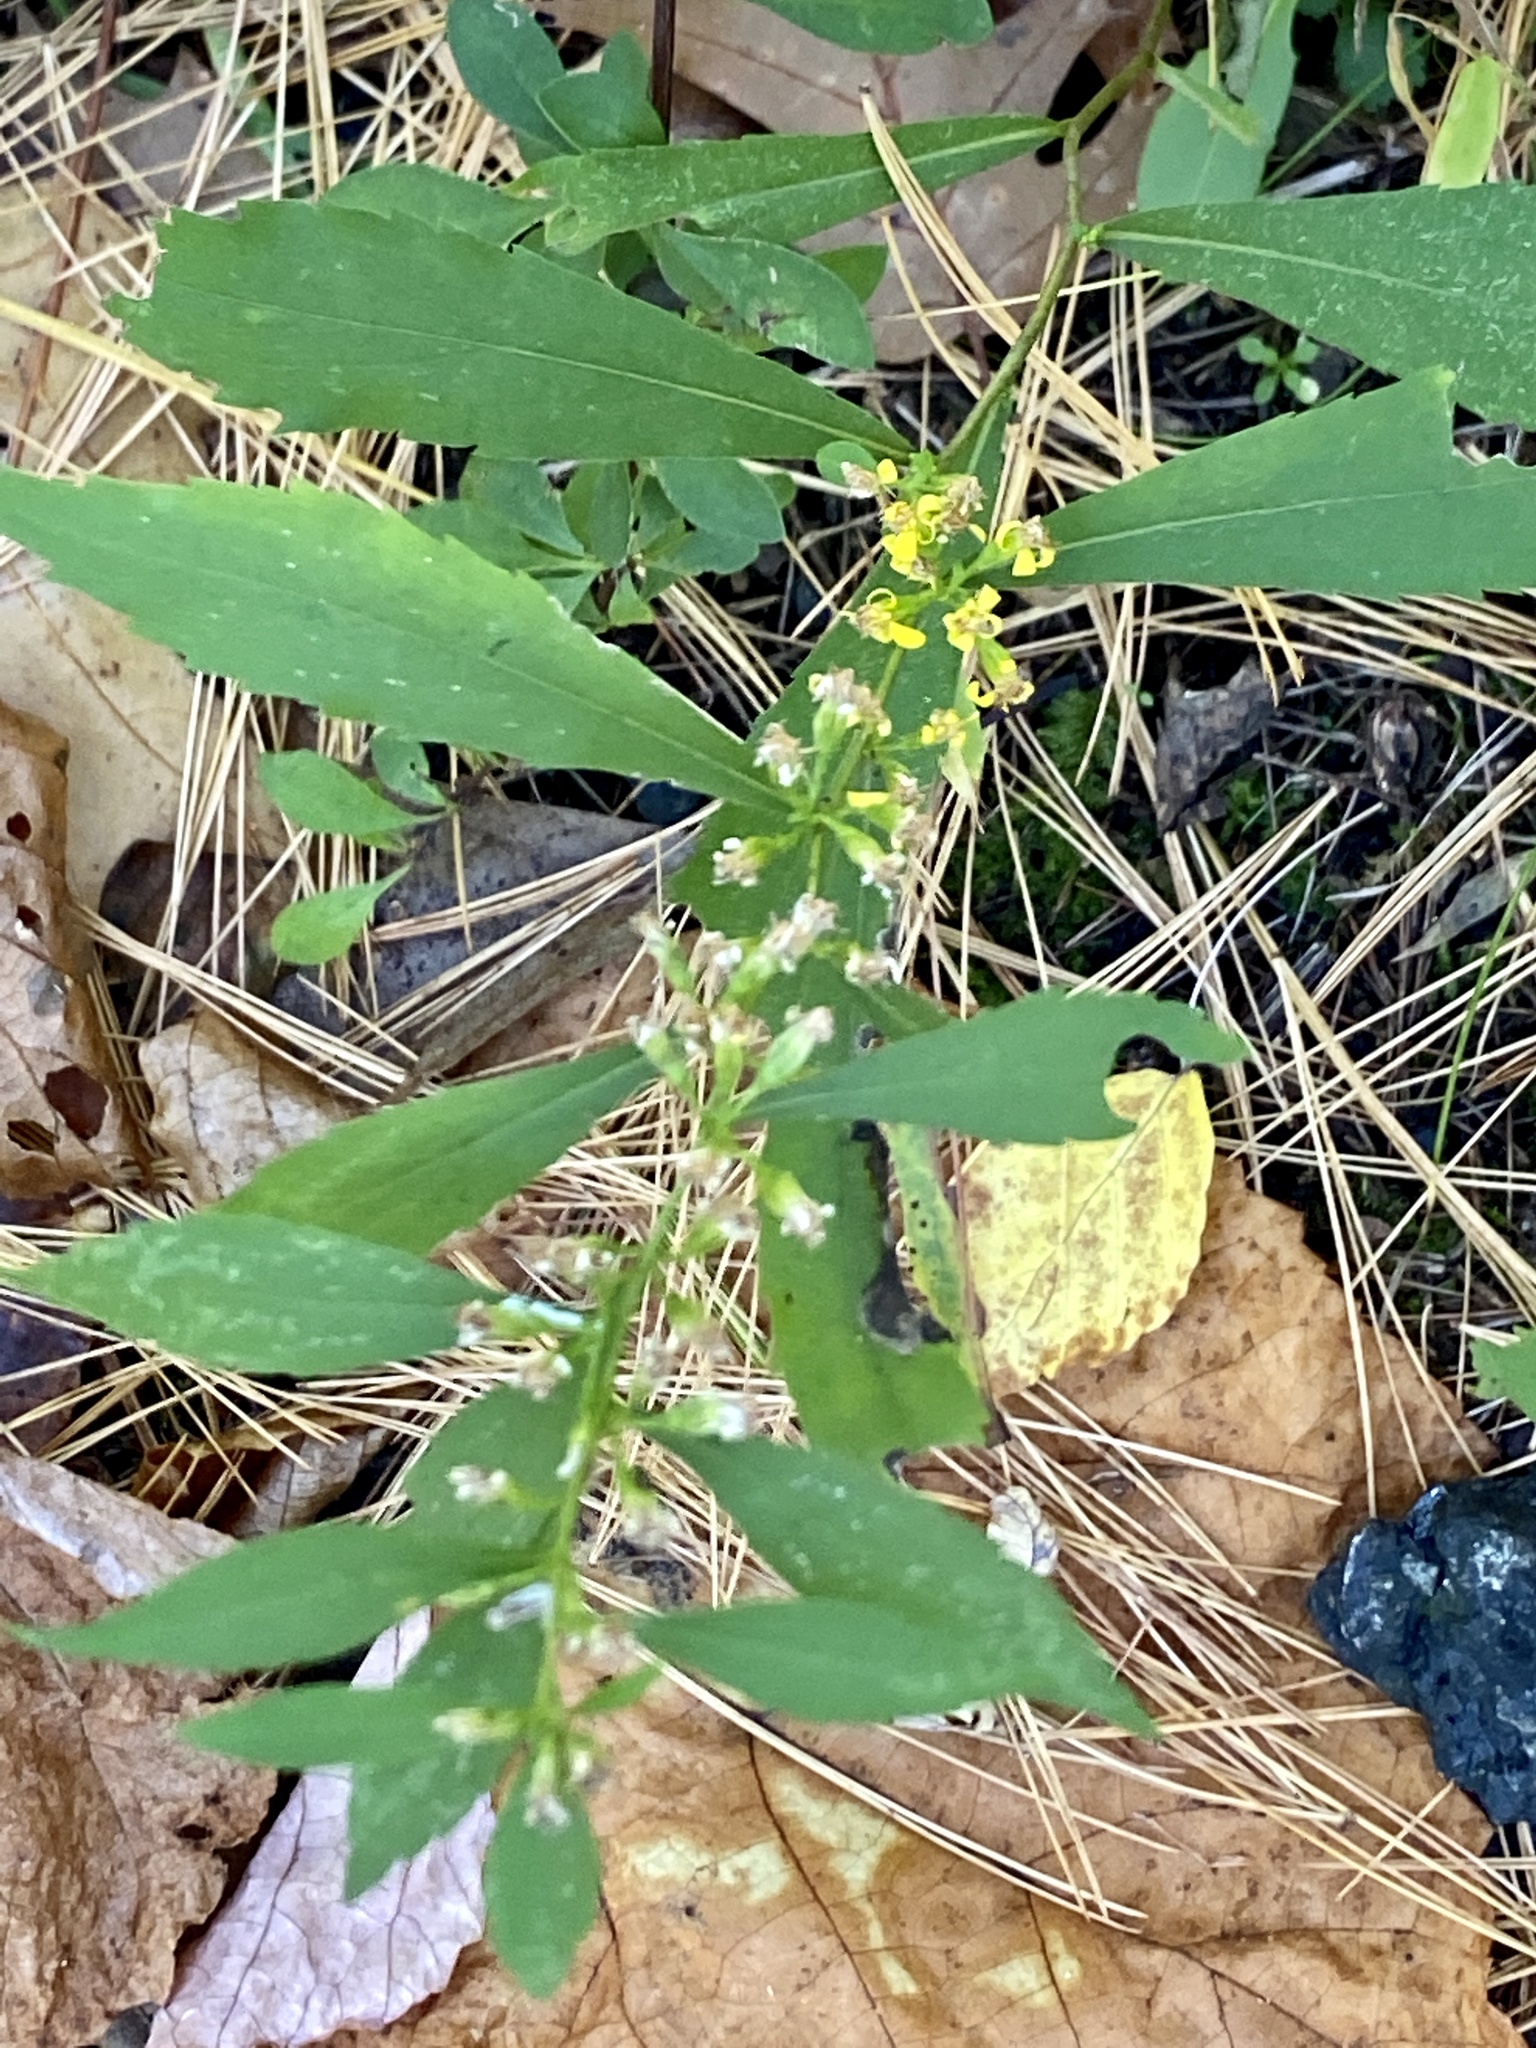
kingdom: Plantae
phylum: Tracheophyta
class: Magnoliopsida
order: Asterales
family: Asteraceae
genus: Solidago
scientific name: Solidago caesia
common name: Woodland goldenrod
